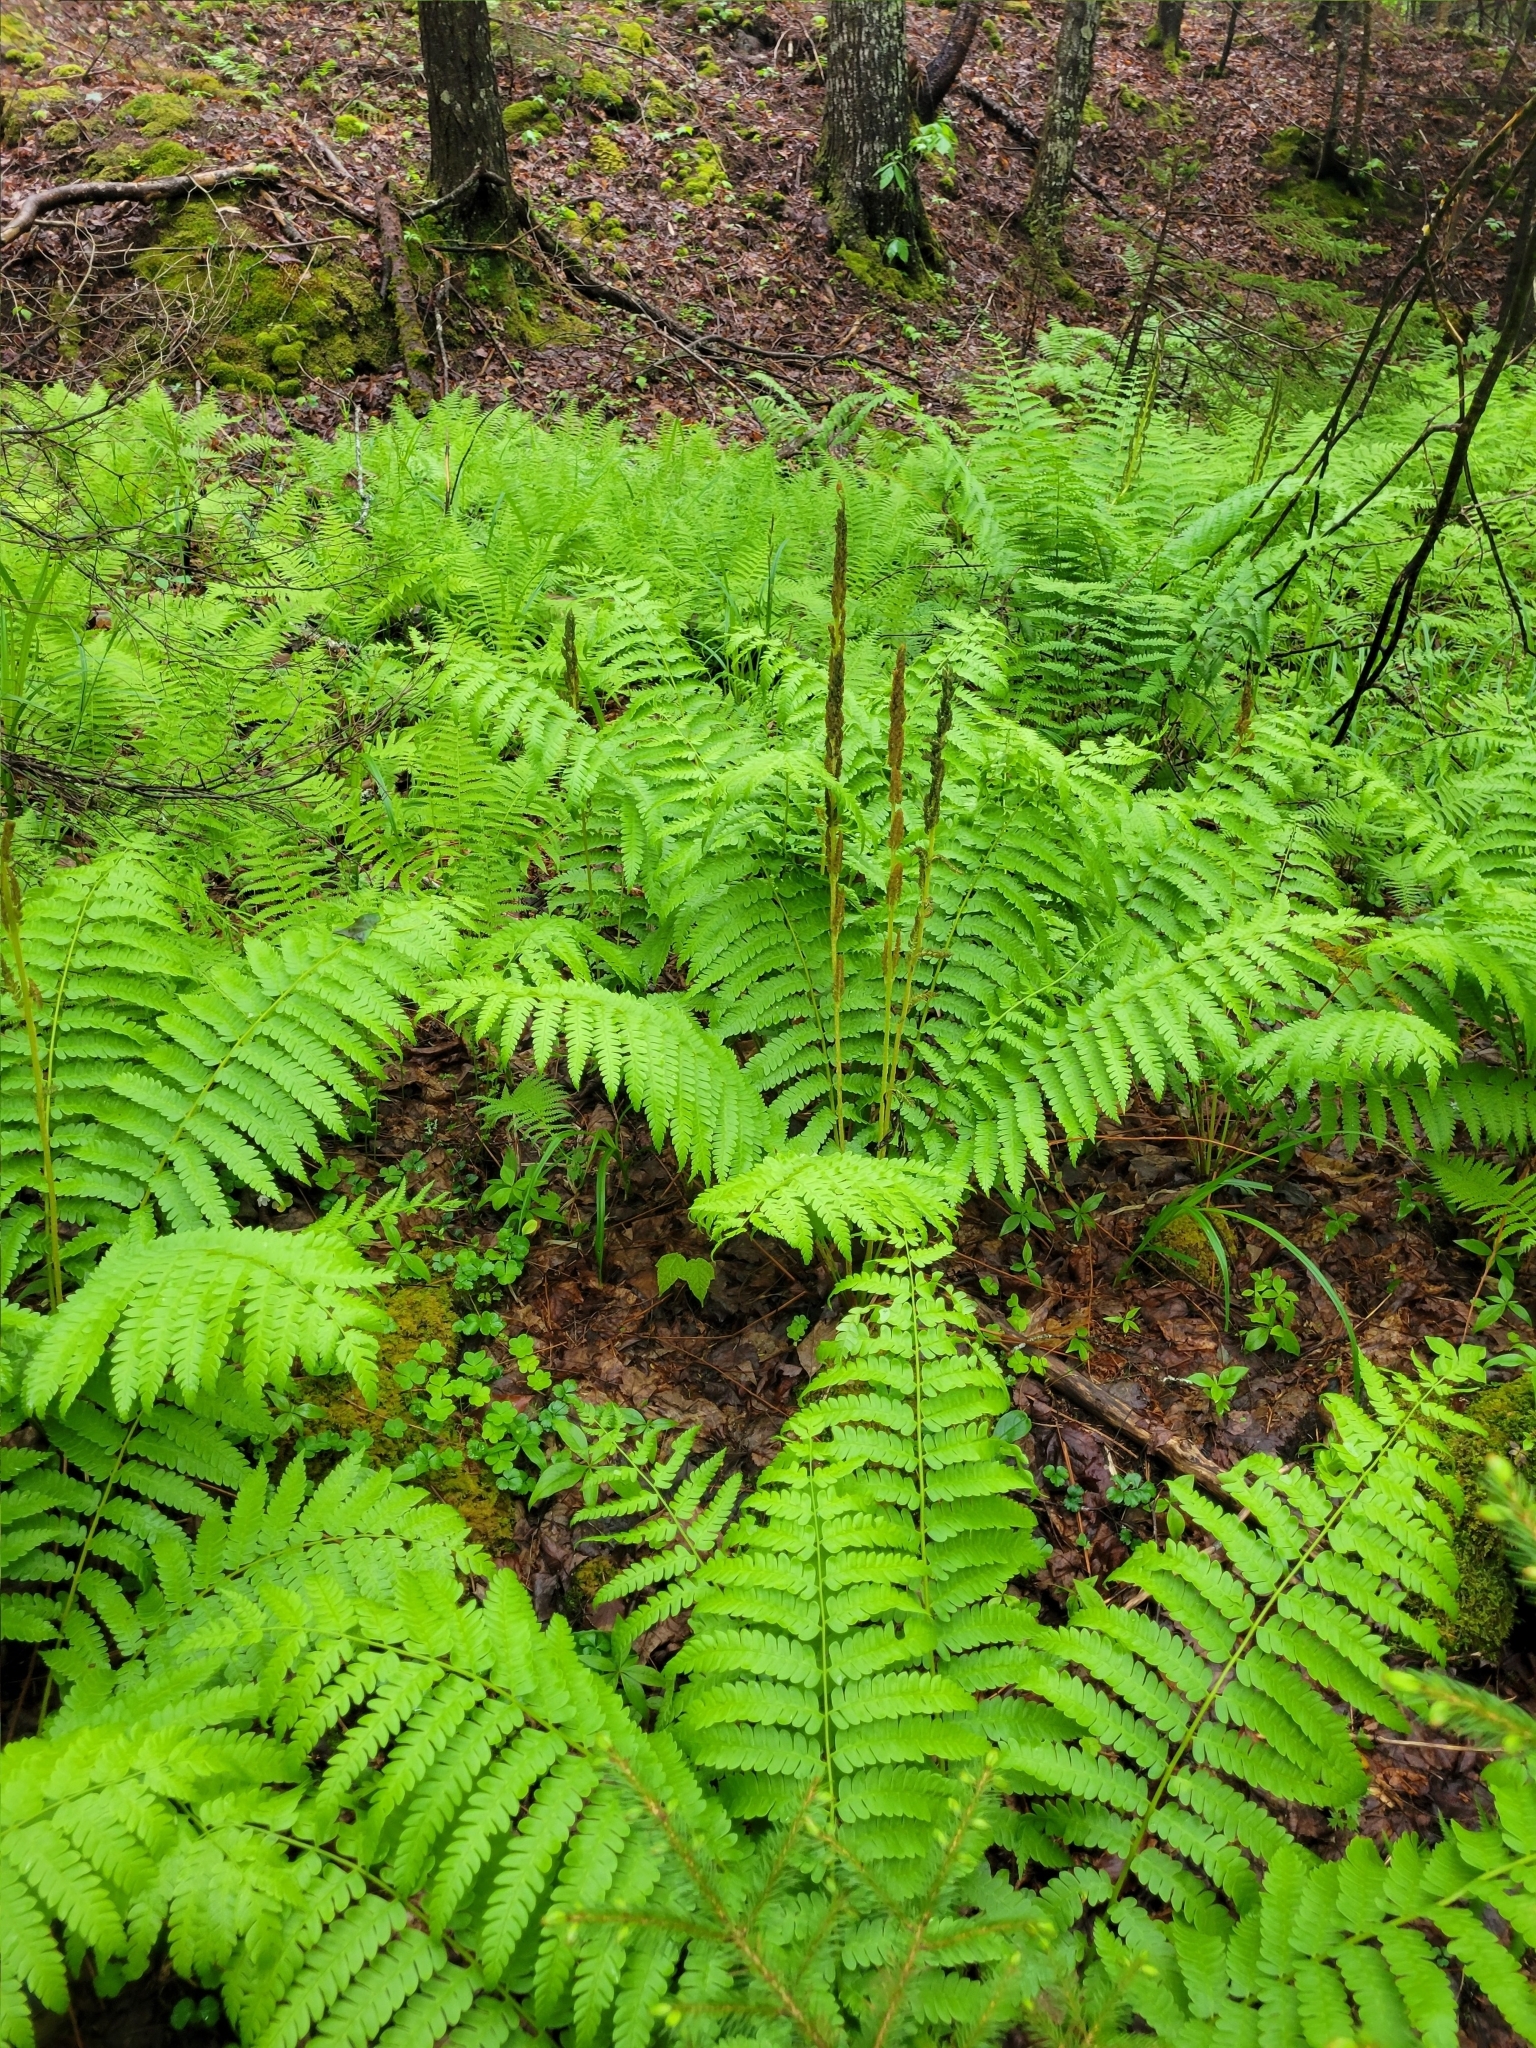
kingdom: Plantae
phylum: Tracheophyta
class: Polypodiopsida
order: Osmundales
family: Osmundaceae
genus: Osmundastrum
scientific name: Osmundastrum cinnamomeum
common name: Cinnamon fern
